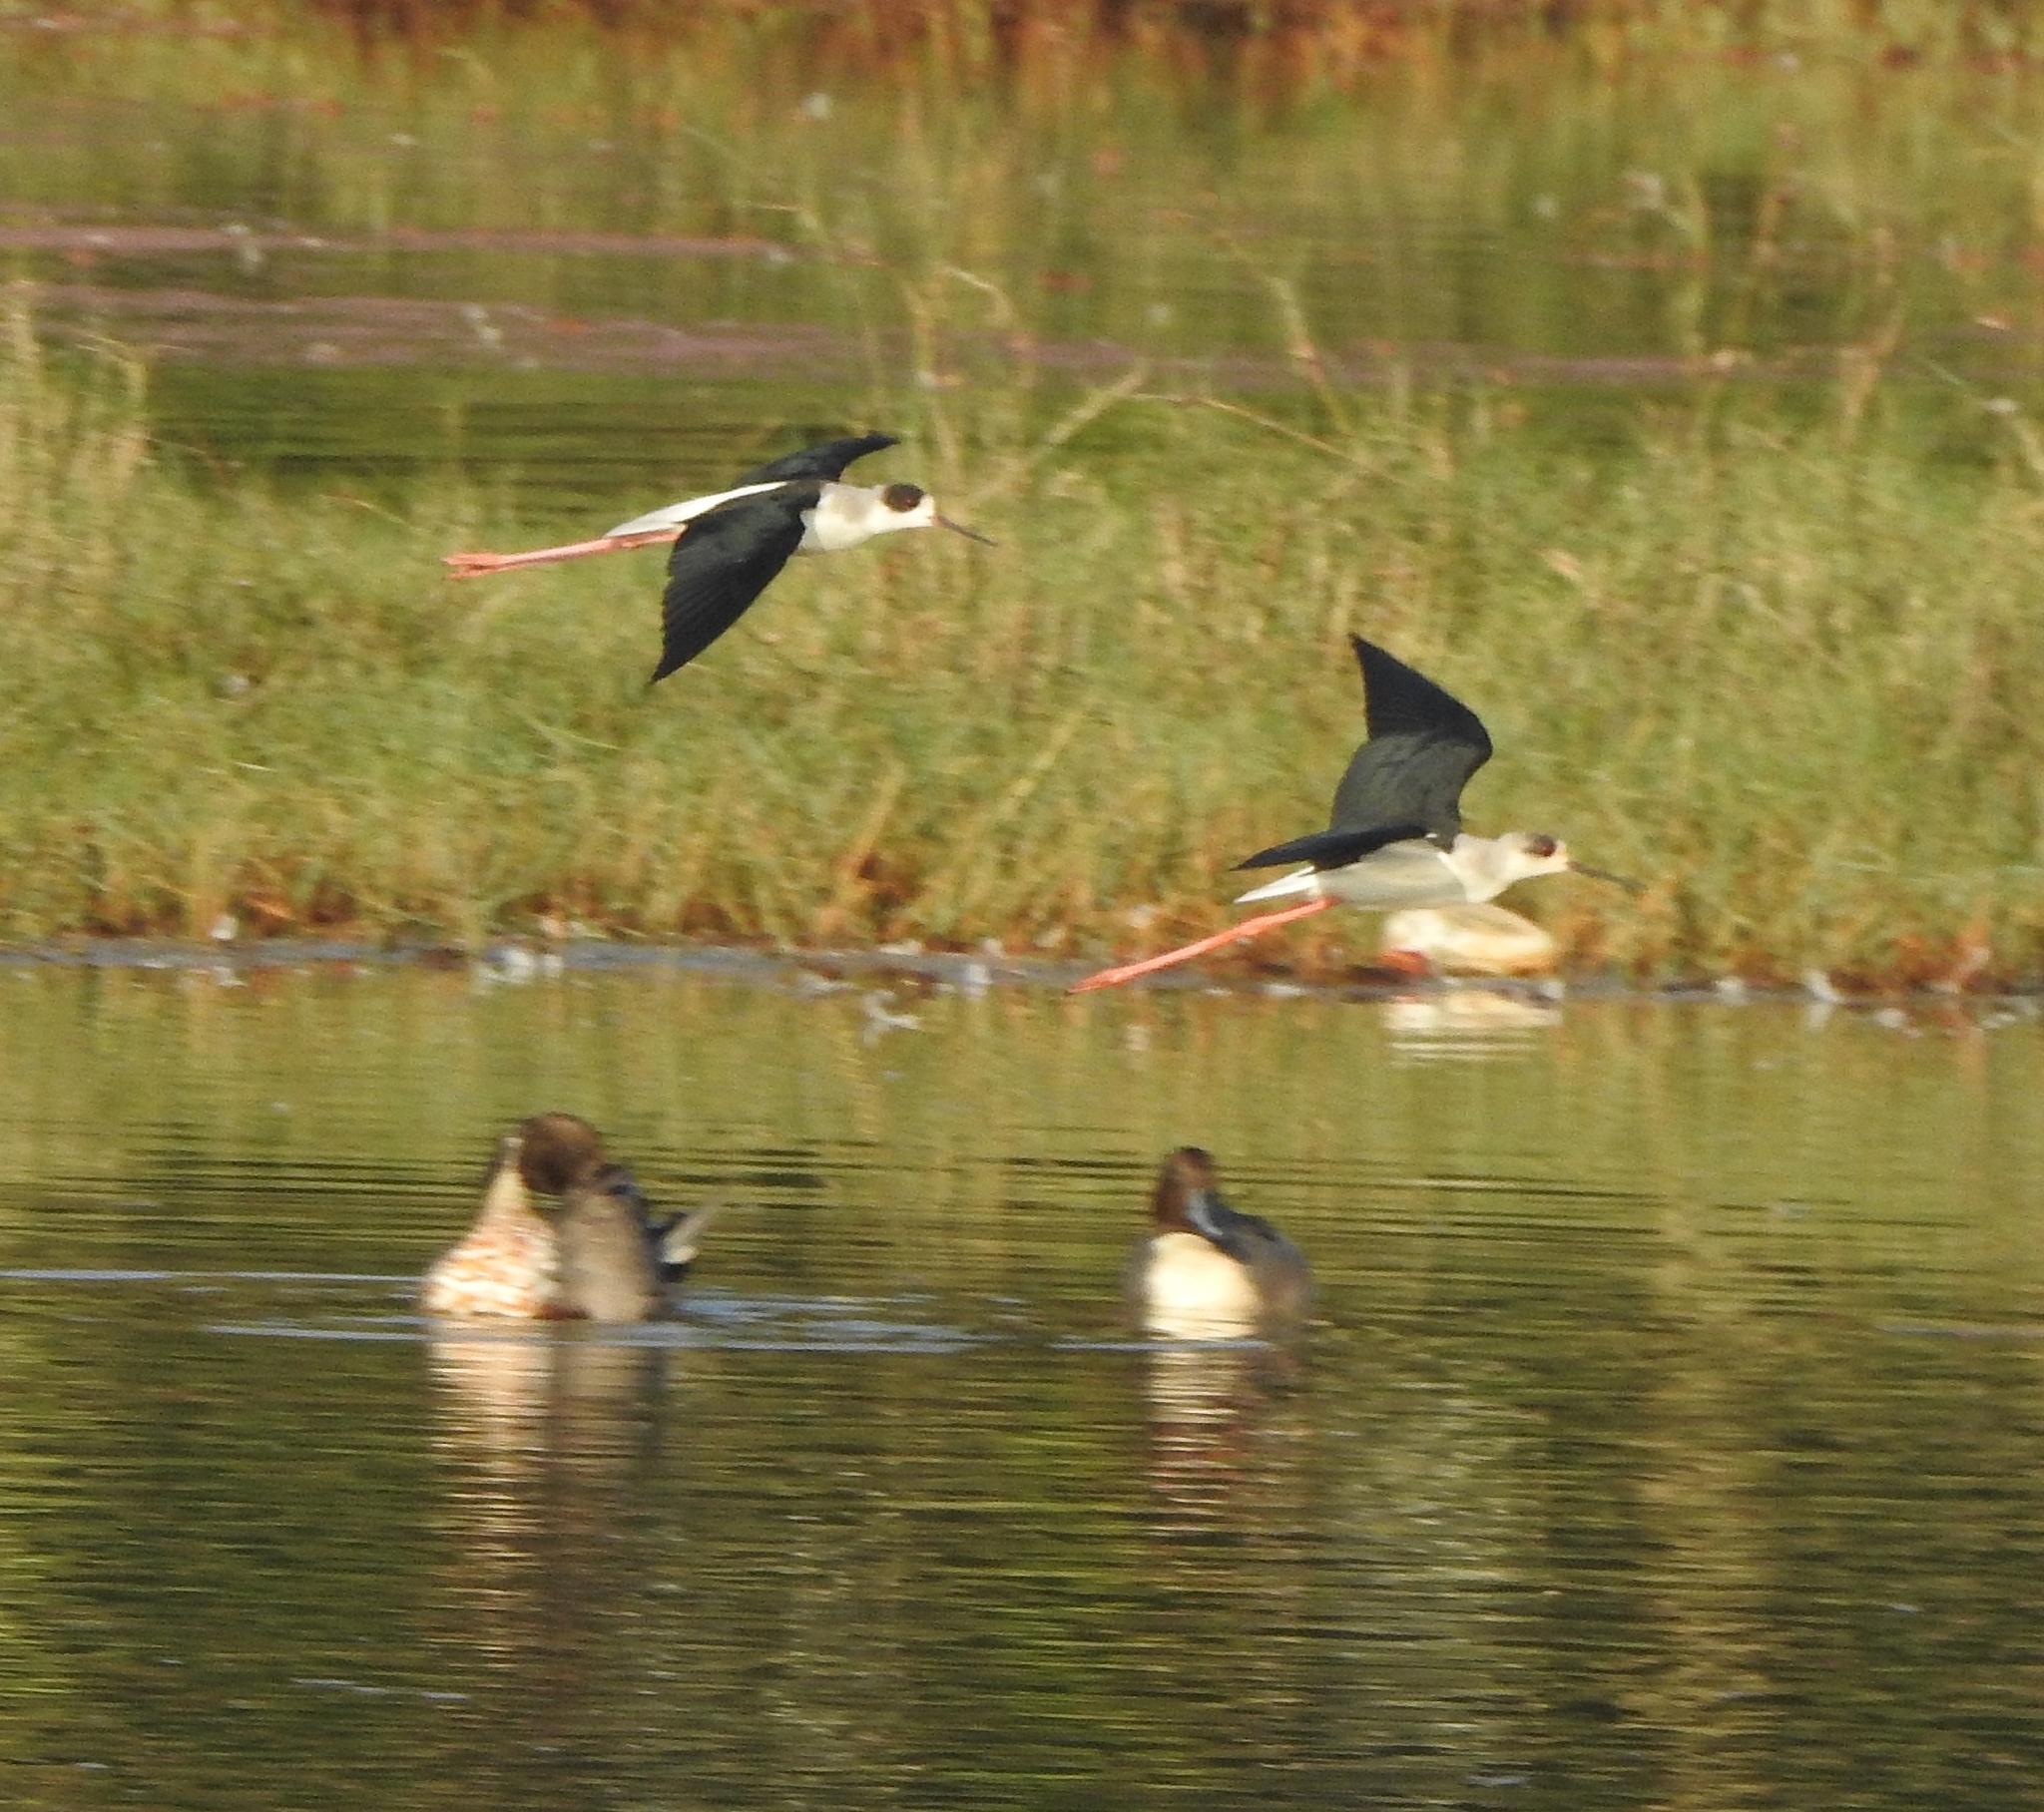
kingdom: Animalia
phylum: Chordata
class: Aves
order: Charadriiformes
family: Recurvirostridae
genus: Himantopus
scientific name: Himantopus himantopus
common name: Black-winged stilt
